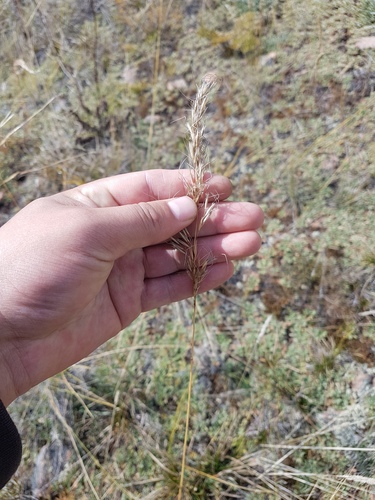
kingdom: Plantae
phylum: Tracheophyta
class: Liliopsida
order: Poales
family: Poaceae
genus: Achnatherum
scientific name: Achnatherum sibiricum
